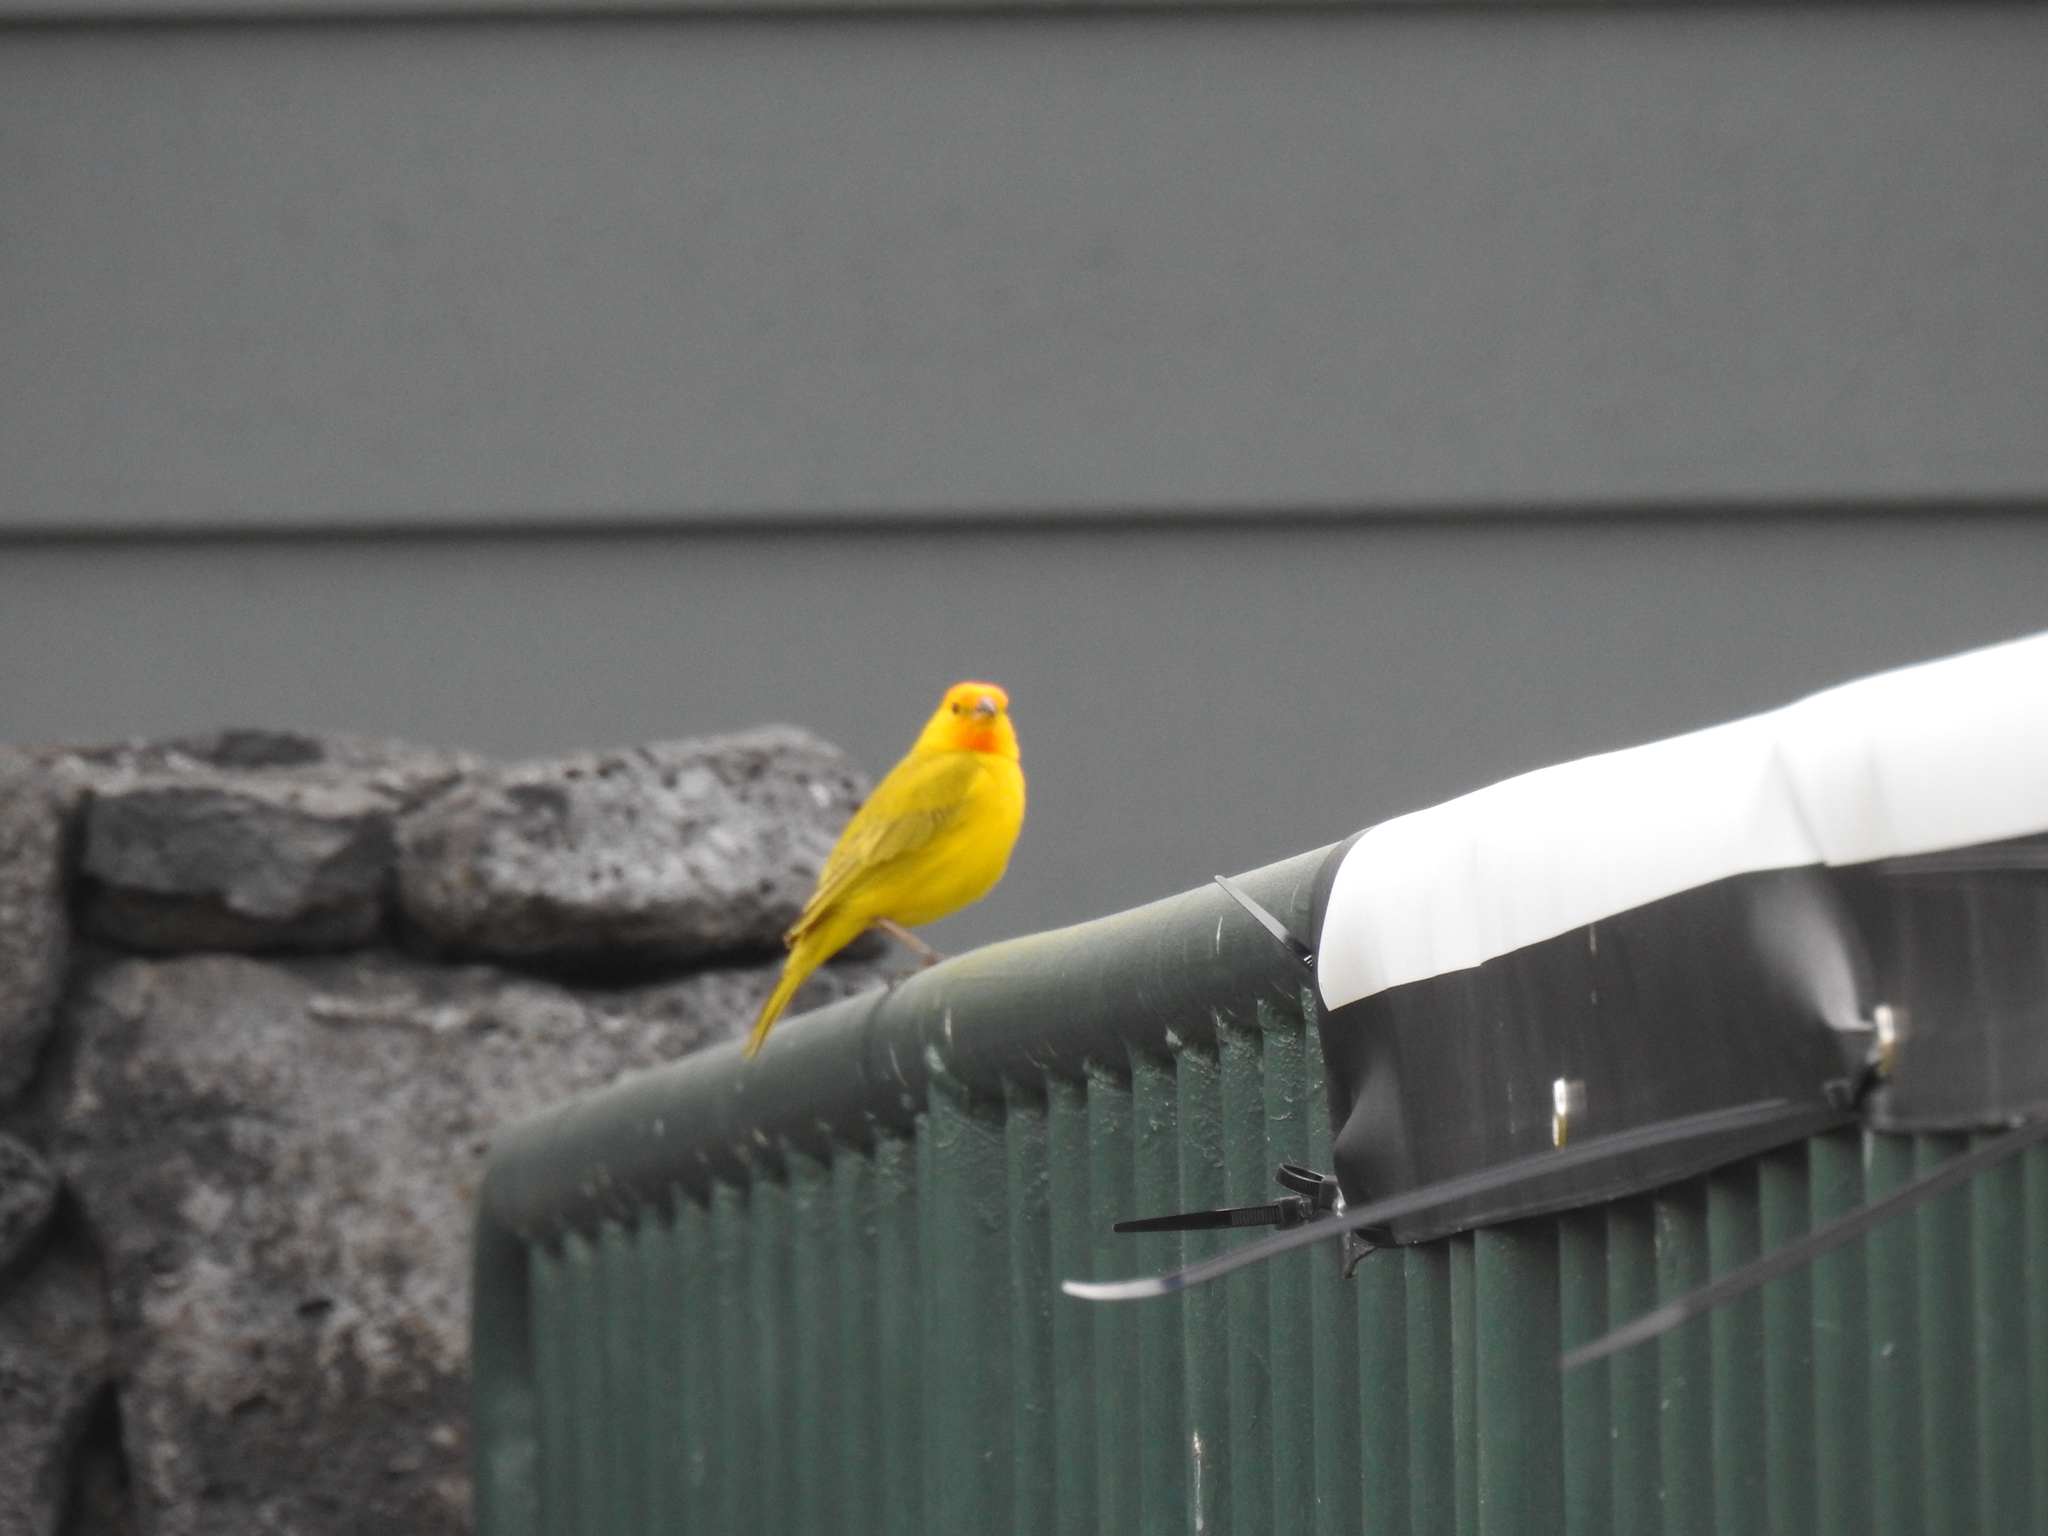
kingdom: Animalia
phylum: Chordata
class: Aves
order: Passeriformes
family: Thraupidae
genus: Sicalis
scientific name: Sicalis flaveola
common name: Saffron finch
